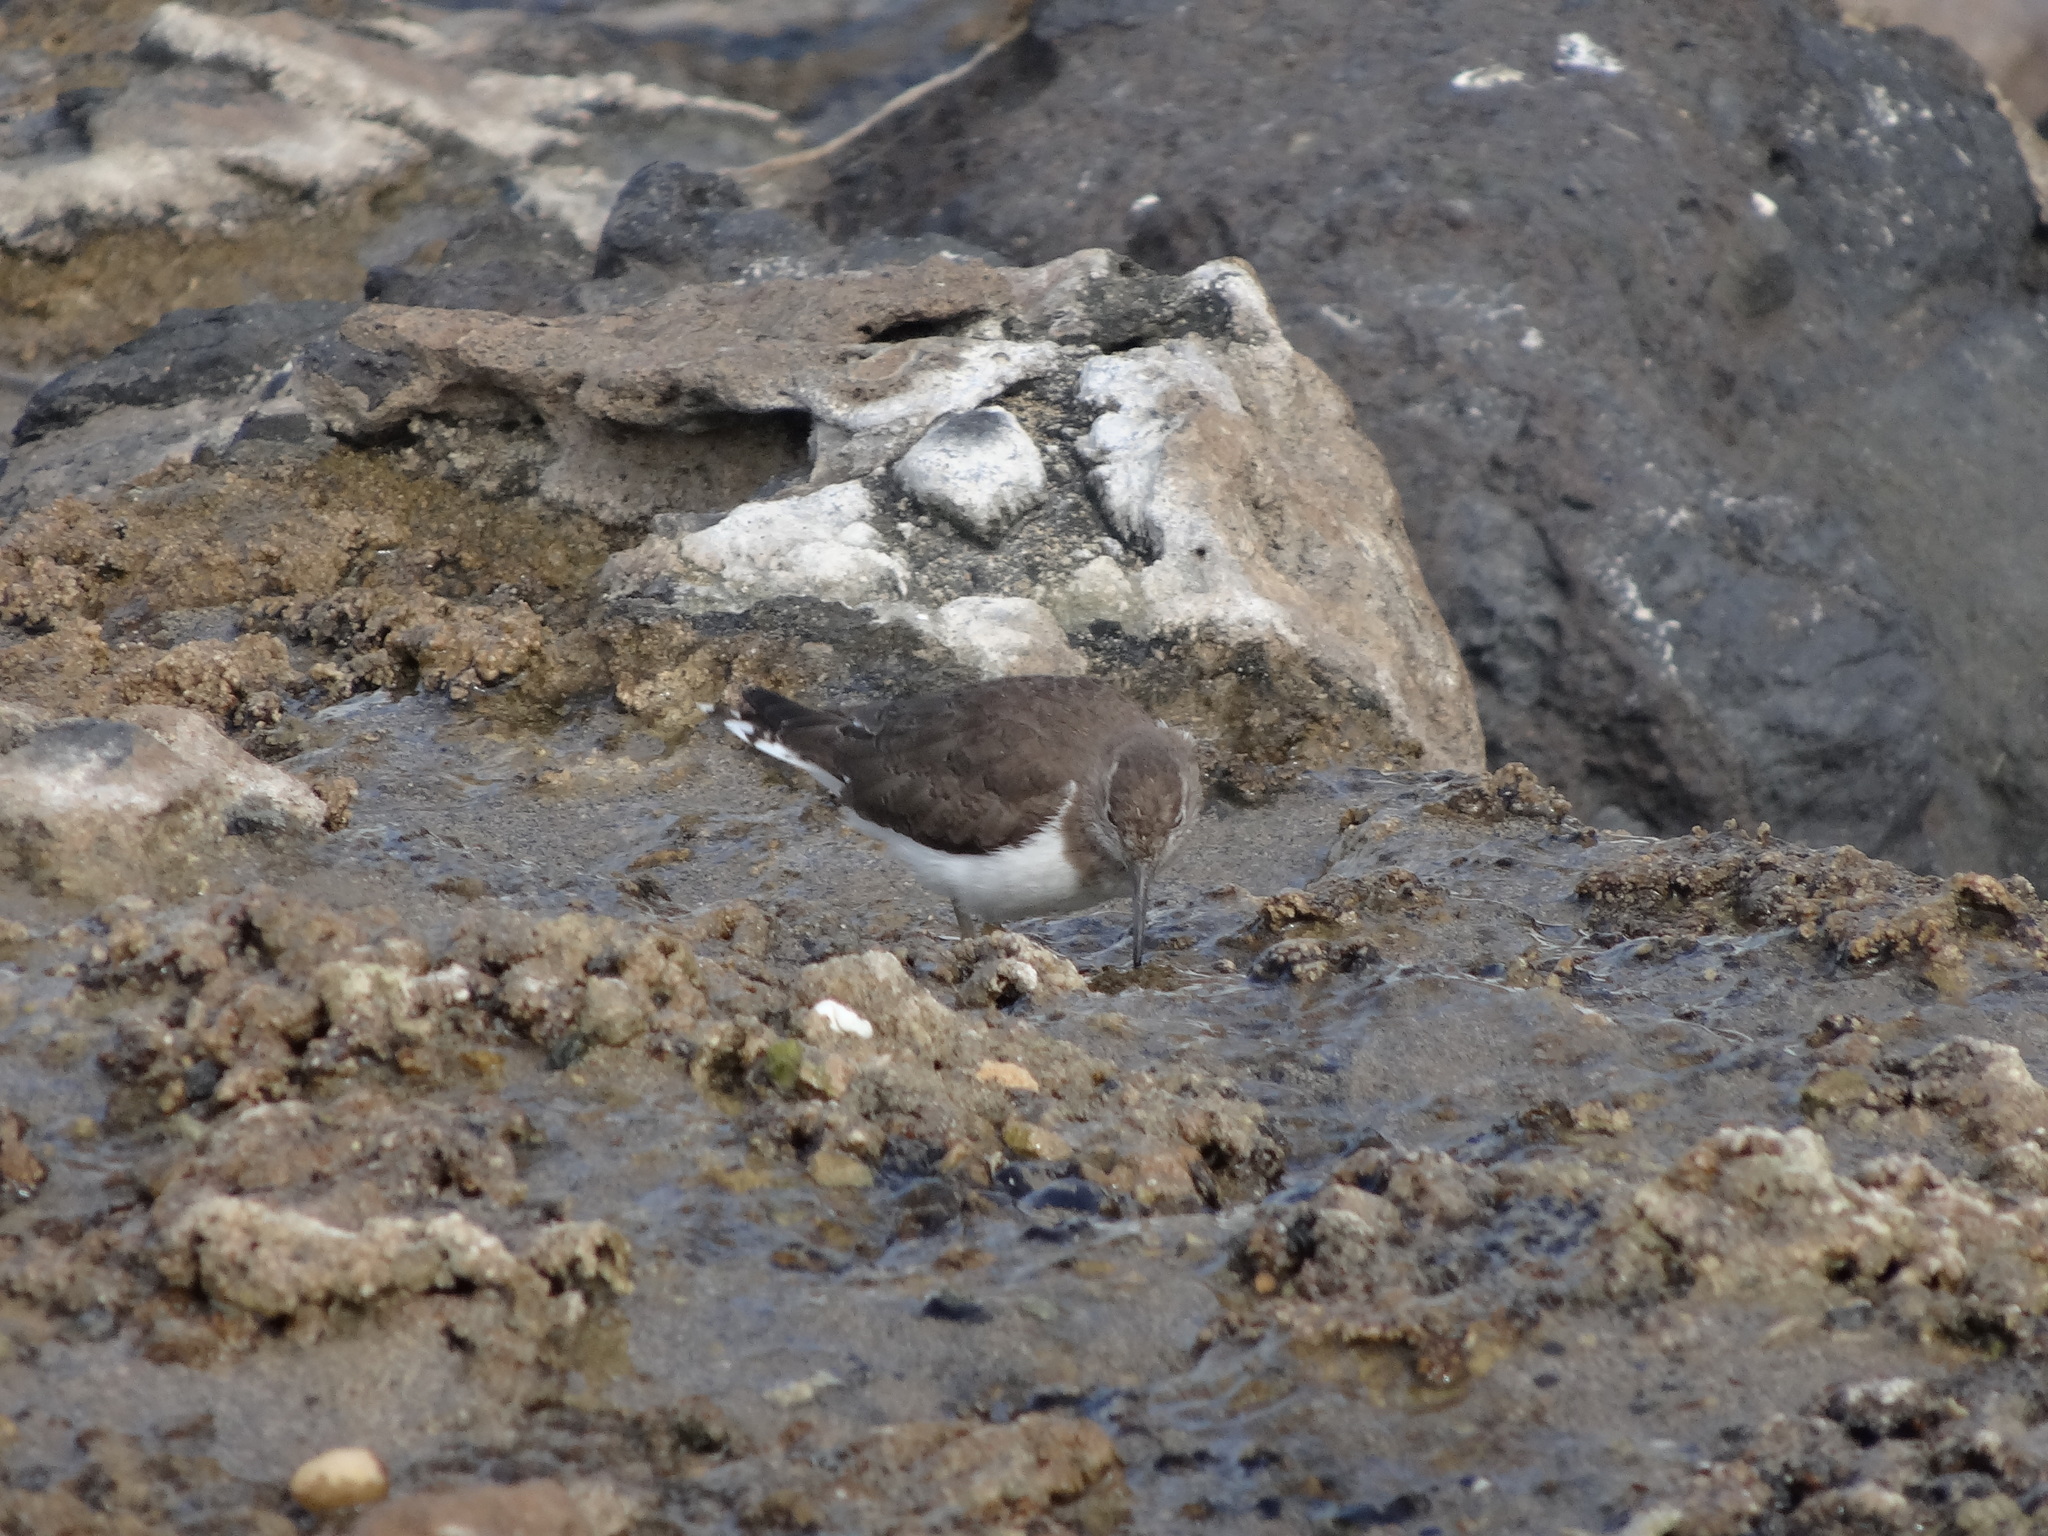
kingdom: Animalia
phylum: Chordata
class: Aves
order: Charadriiformes
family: Scolopacidae
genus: Actitis
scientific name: Actitis hypoleucos
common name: Common sandpiper
